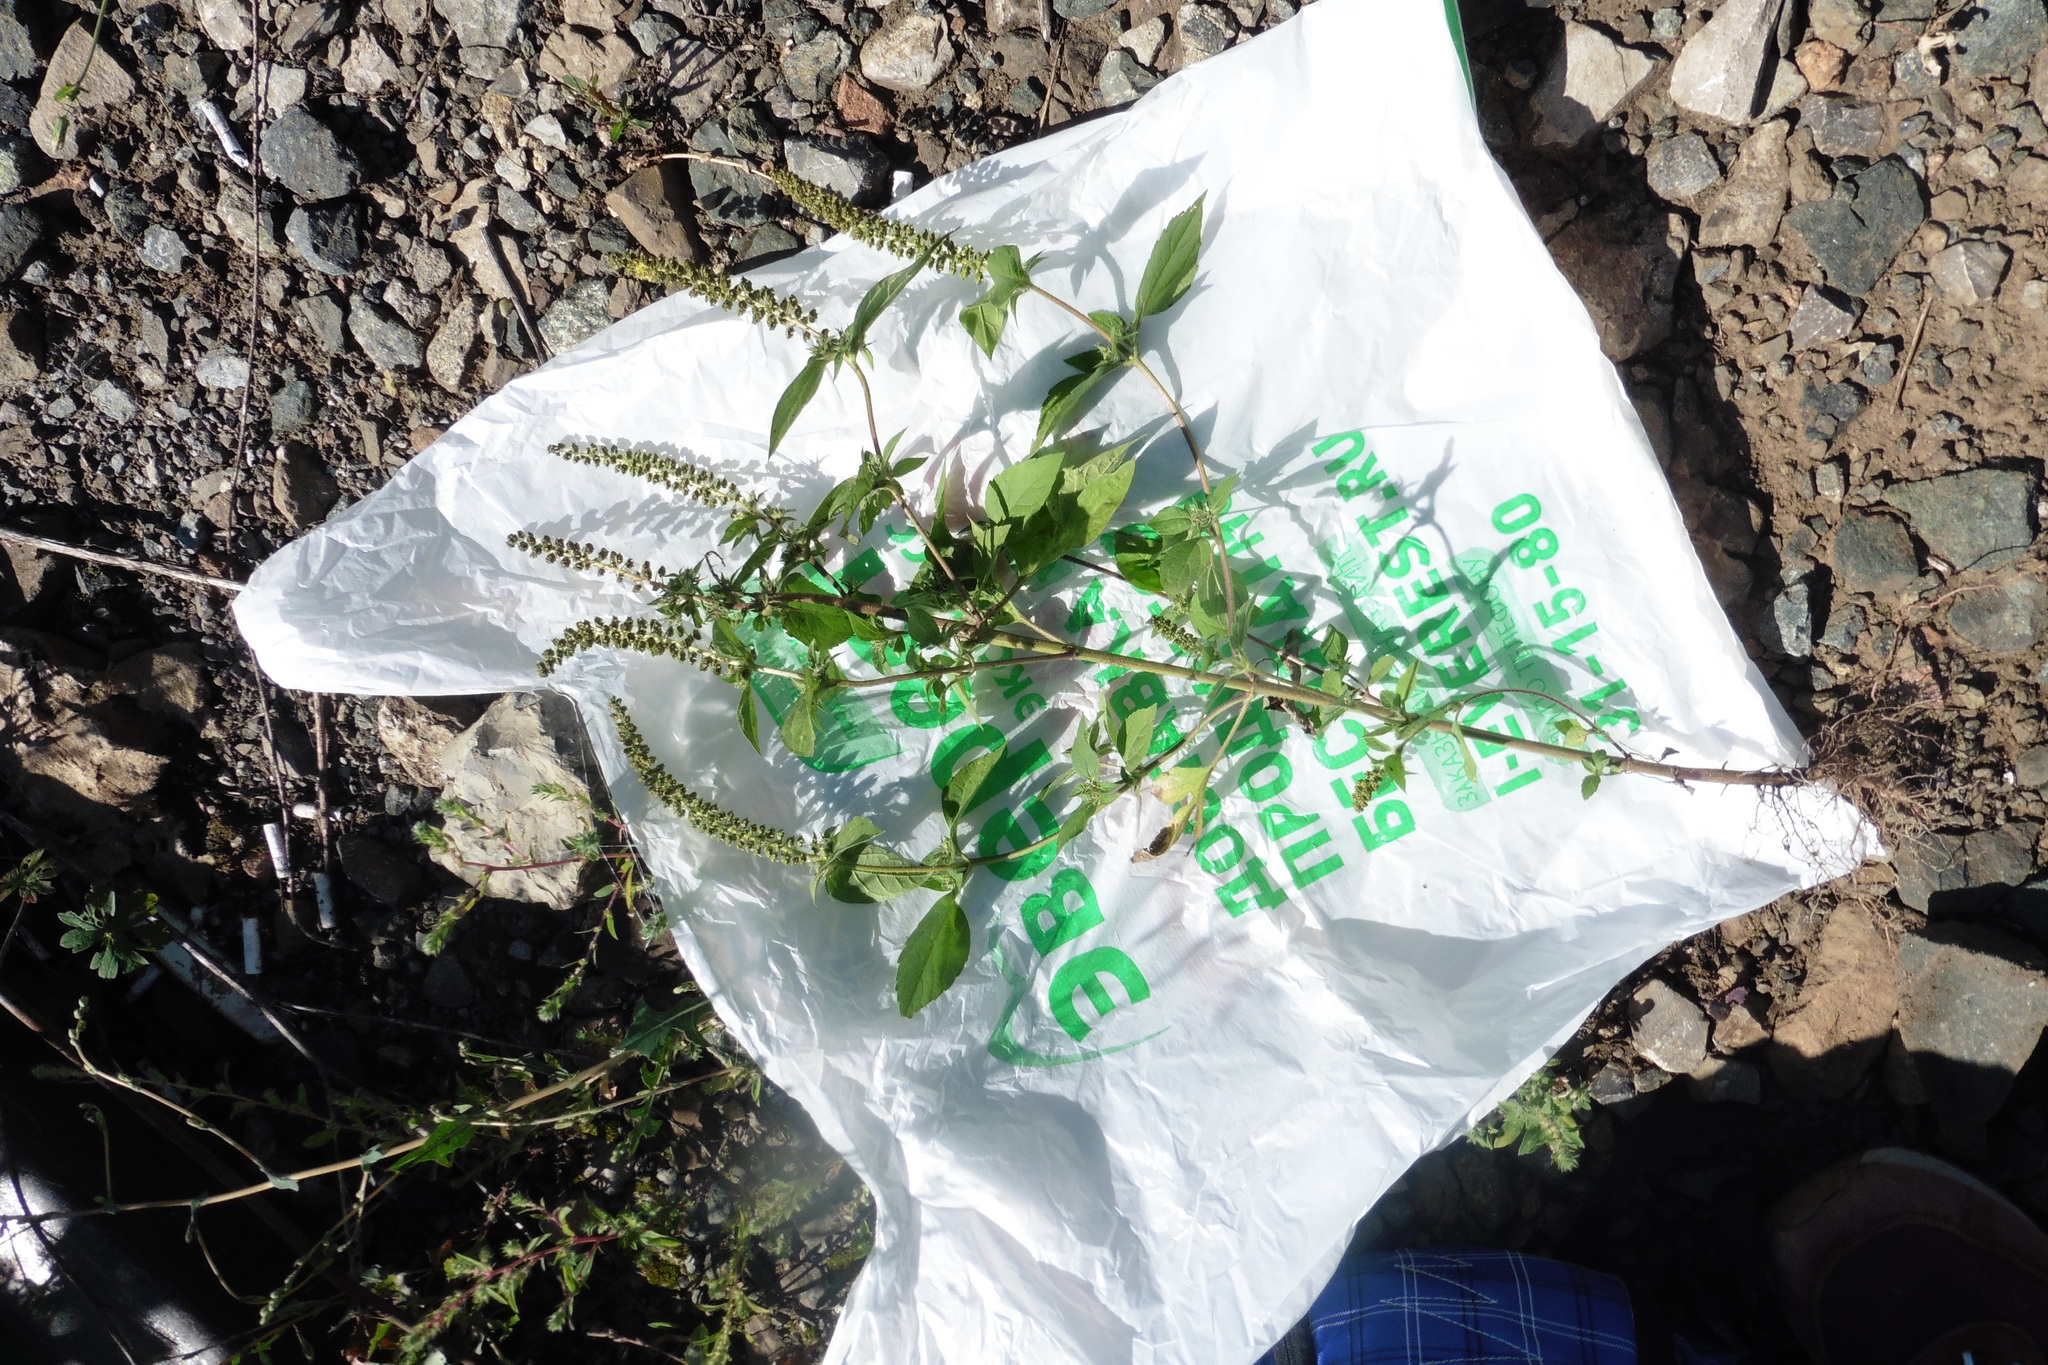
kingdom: Plantae
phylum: Tracheophyta
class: Magnoliopsida
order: Asterales
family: Asteraceae
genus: Ambrosia
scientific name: Ambrosia trifida
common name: Giant ragweed
